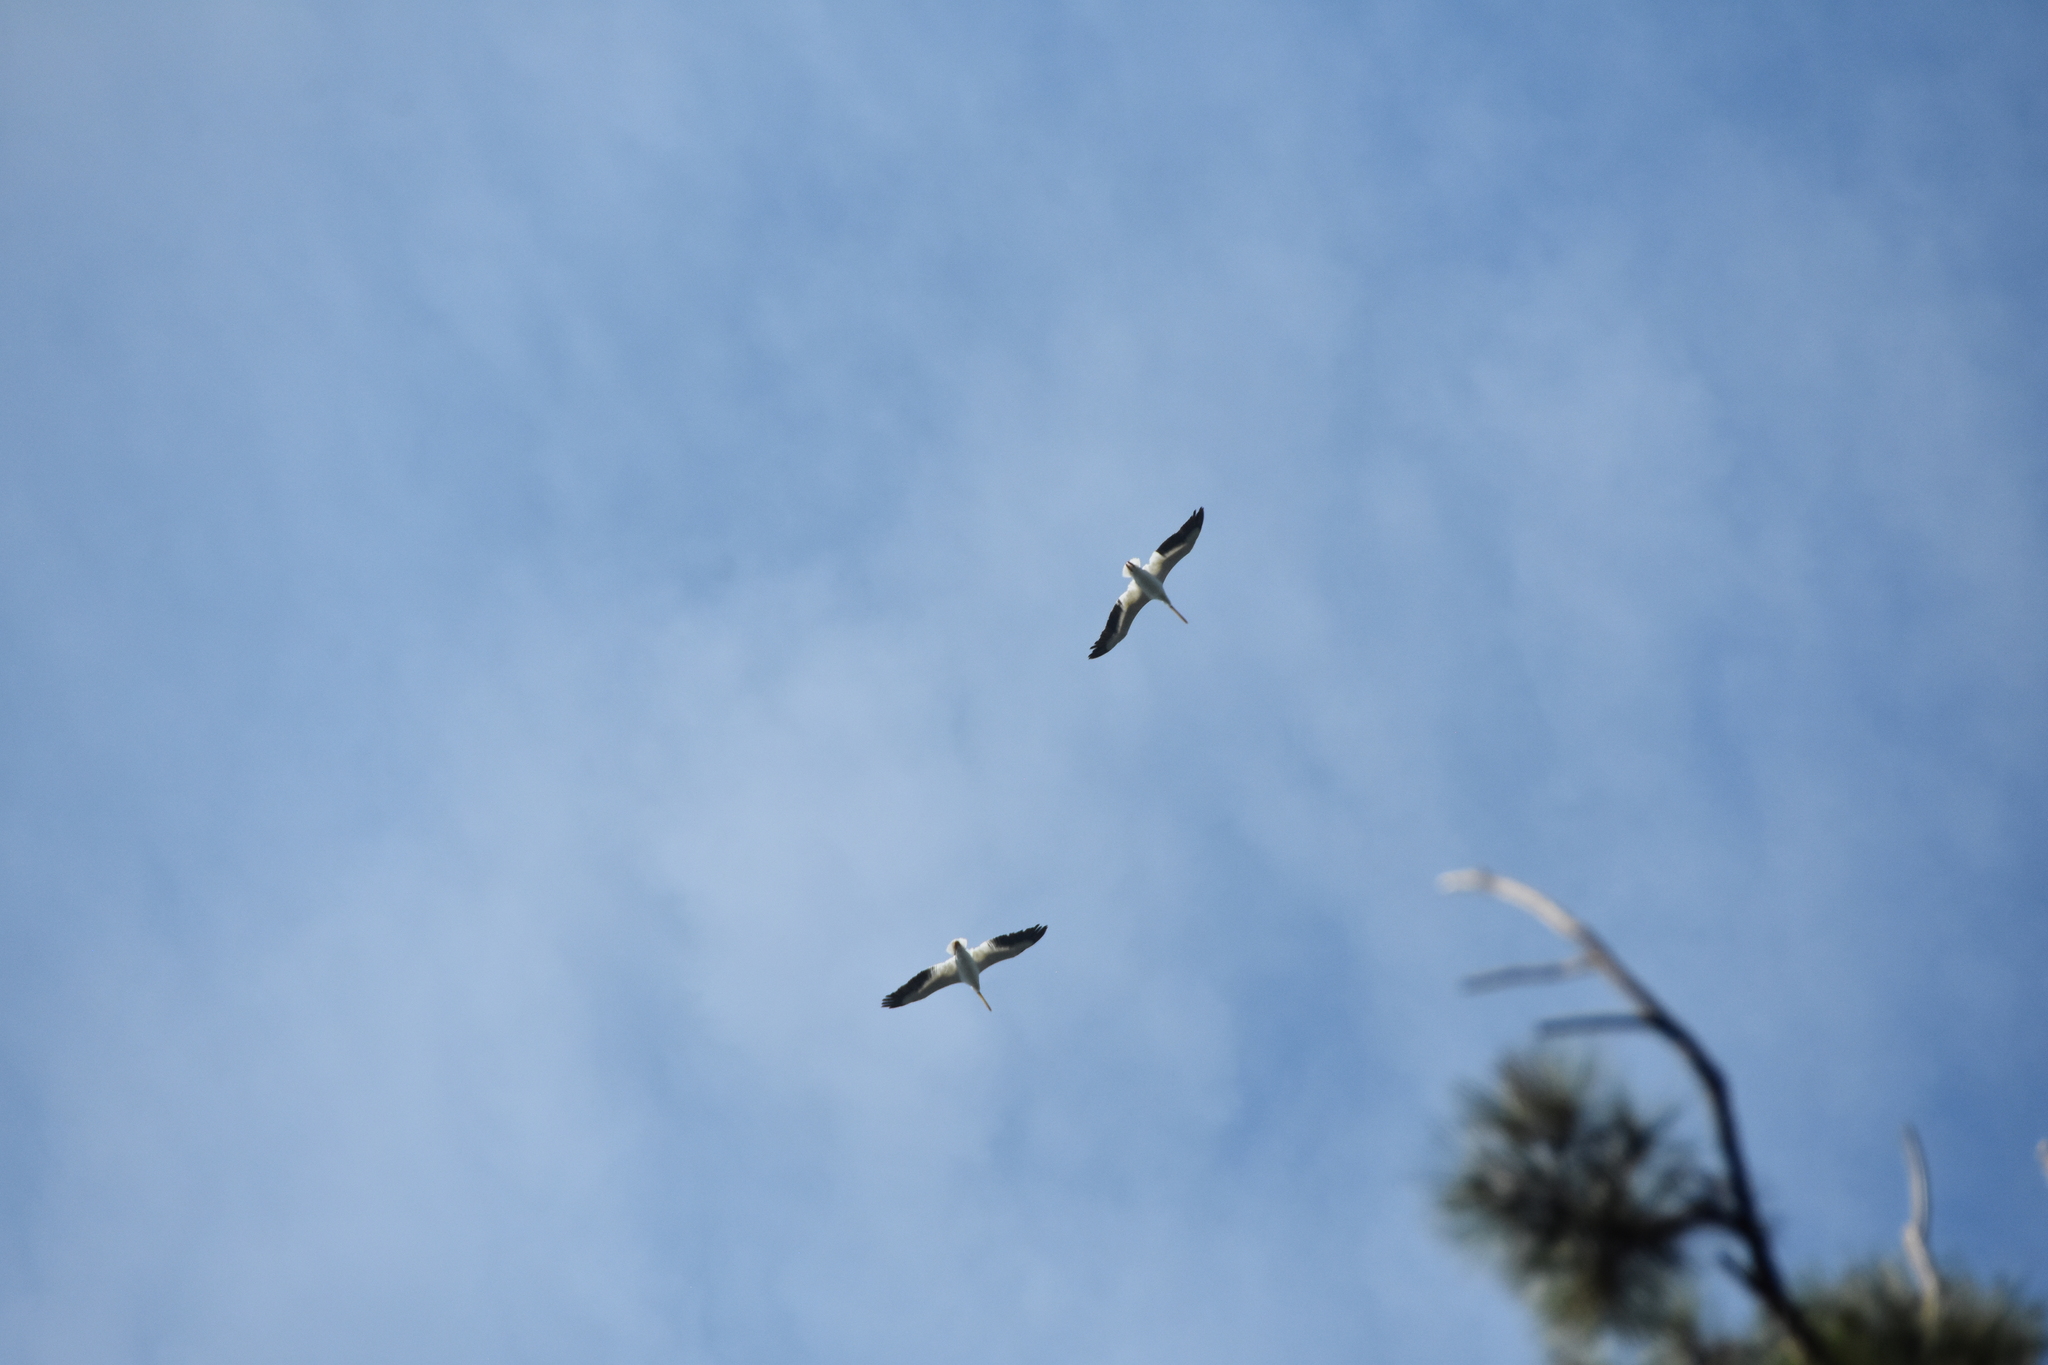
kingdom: Animalia
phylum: Chordata
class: Aves
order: Pelecaniformes
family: Pelecanidae
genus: Pelecanus
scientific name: Pelecanus erythrorhynchos
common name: American white pelican
